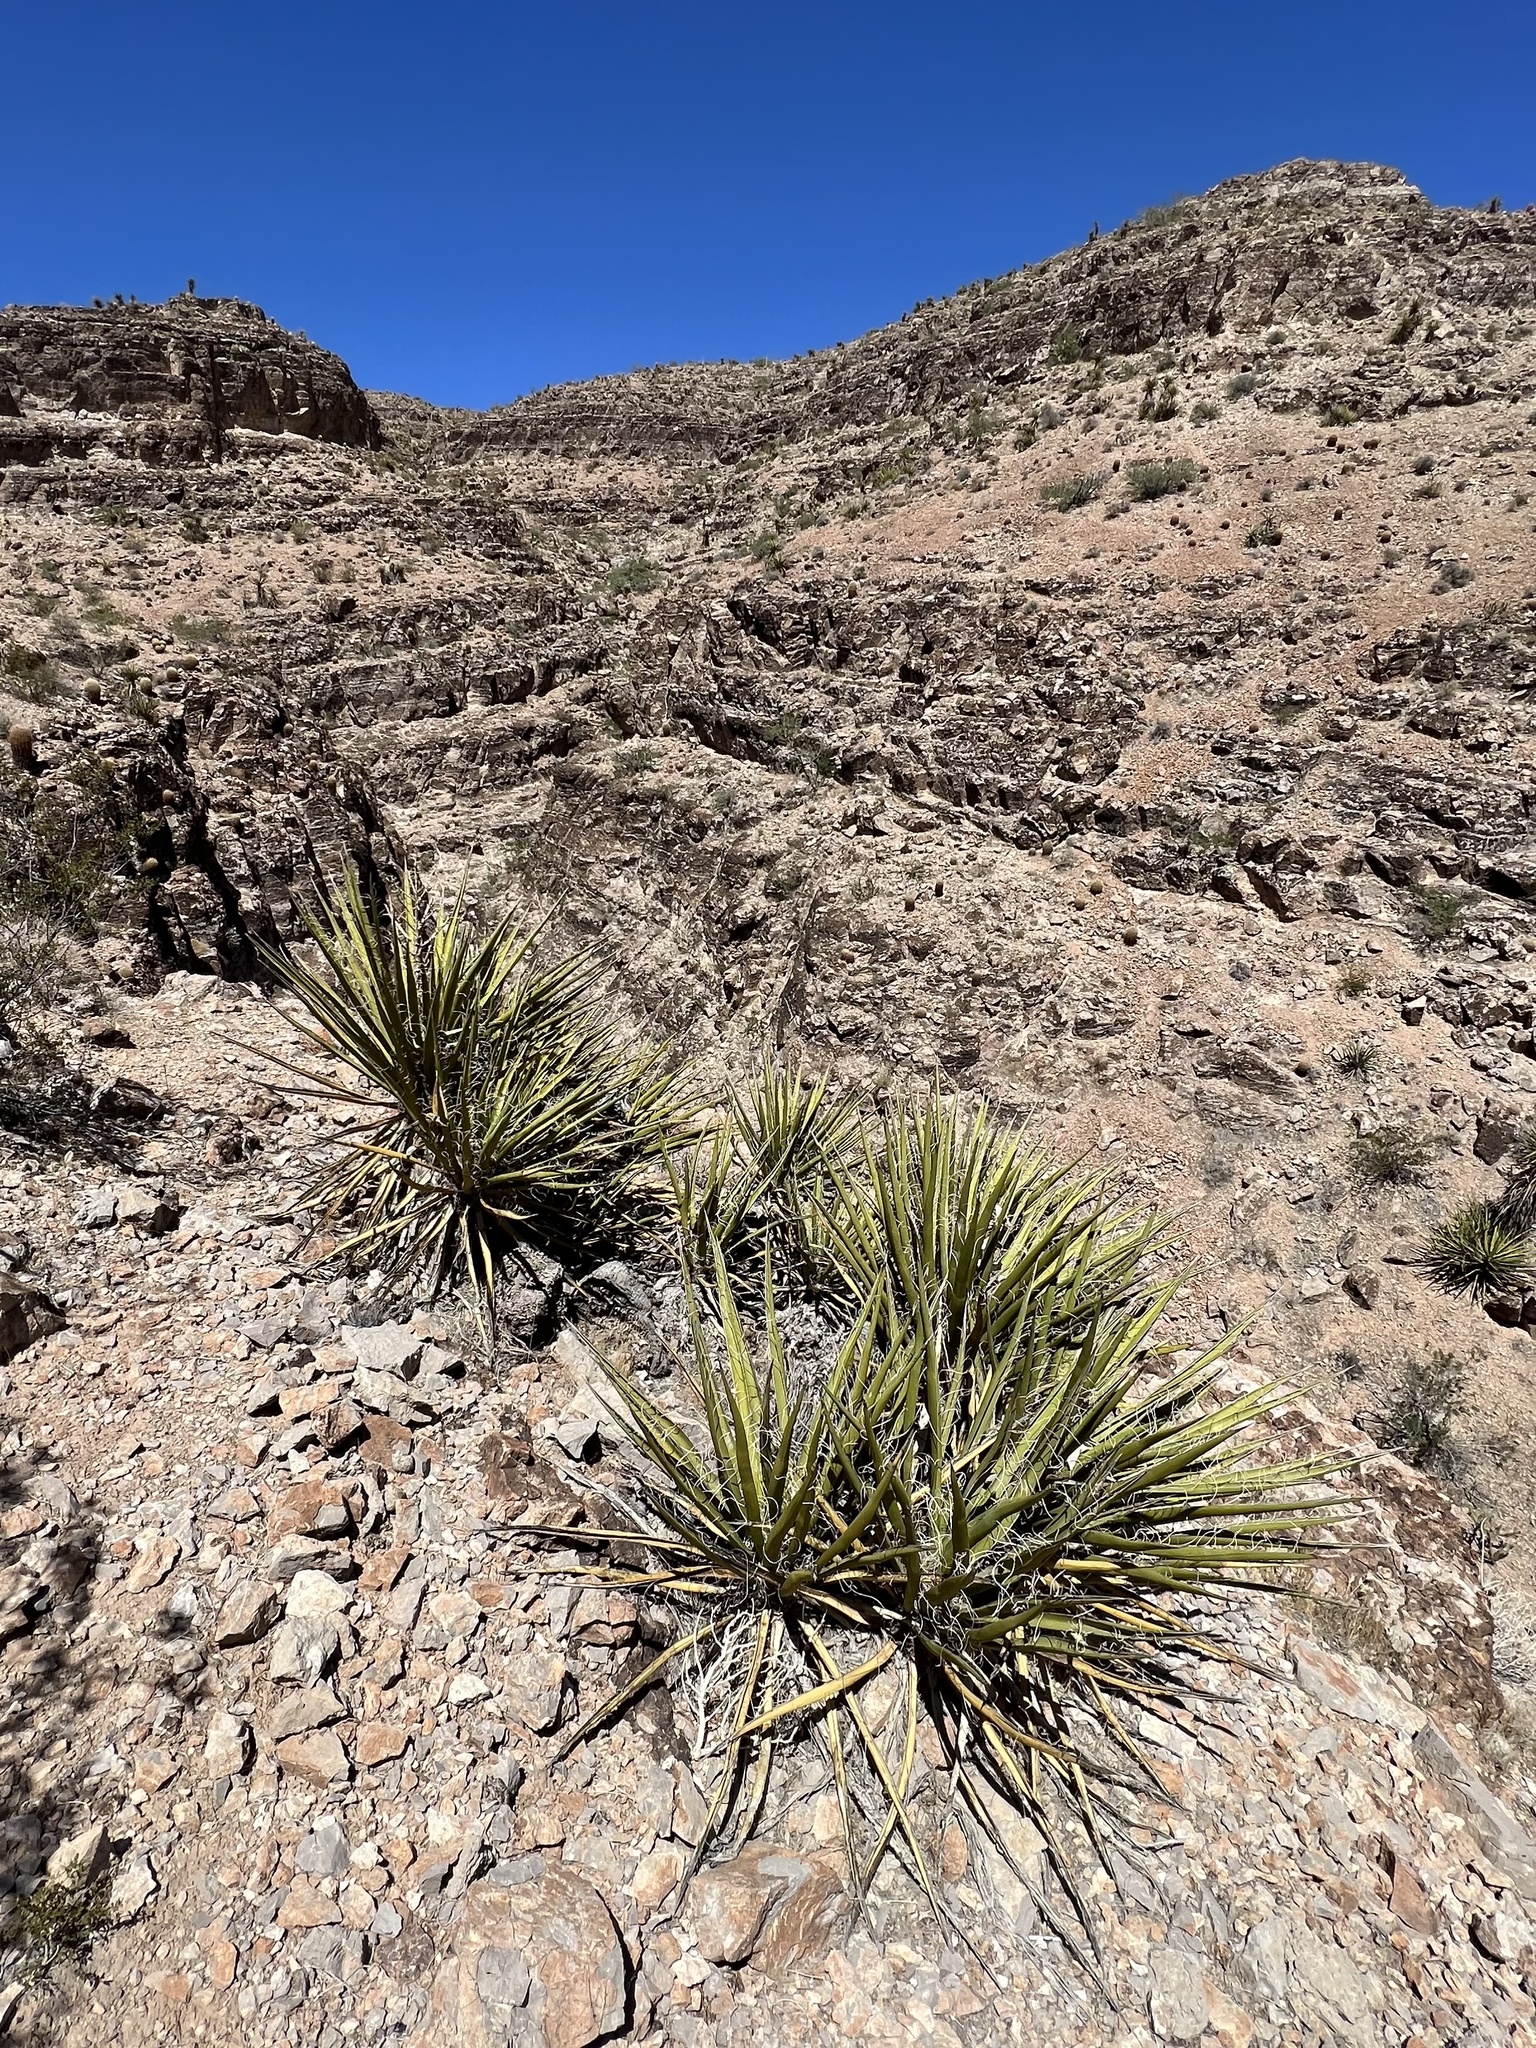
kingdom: Plantae
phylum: Tracheophyta
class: Liliopsida
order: Asparagales
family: Asparagaceae
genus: Yucca
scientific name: Yucca schidigera
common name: Mojave yucca
